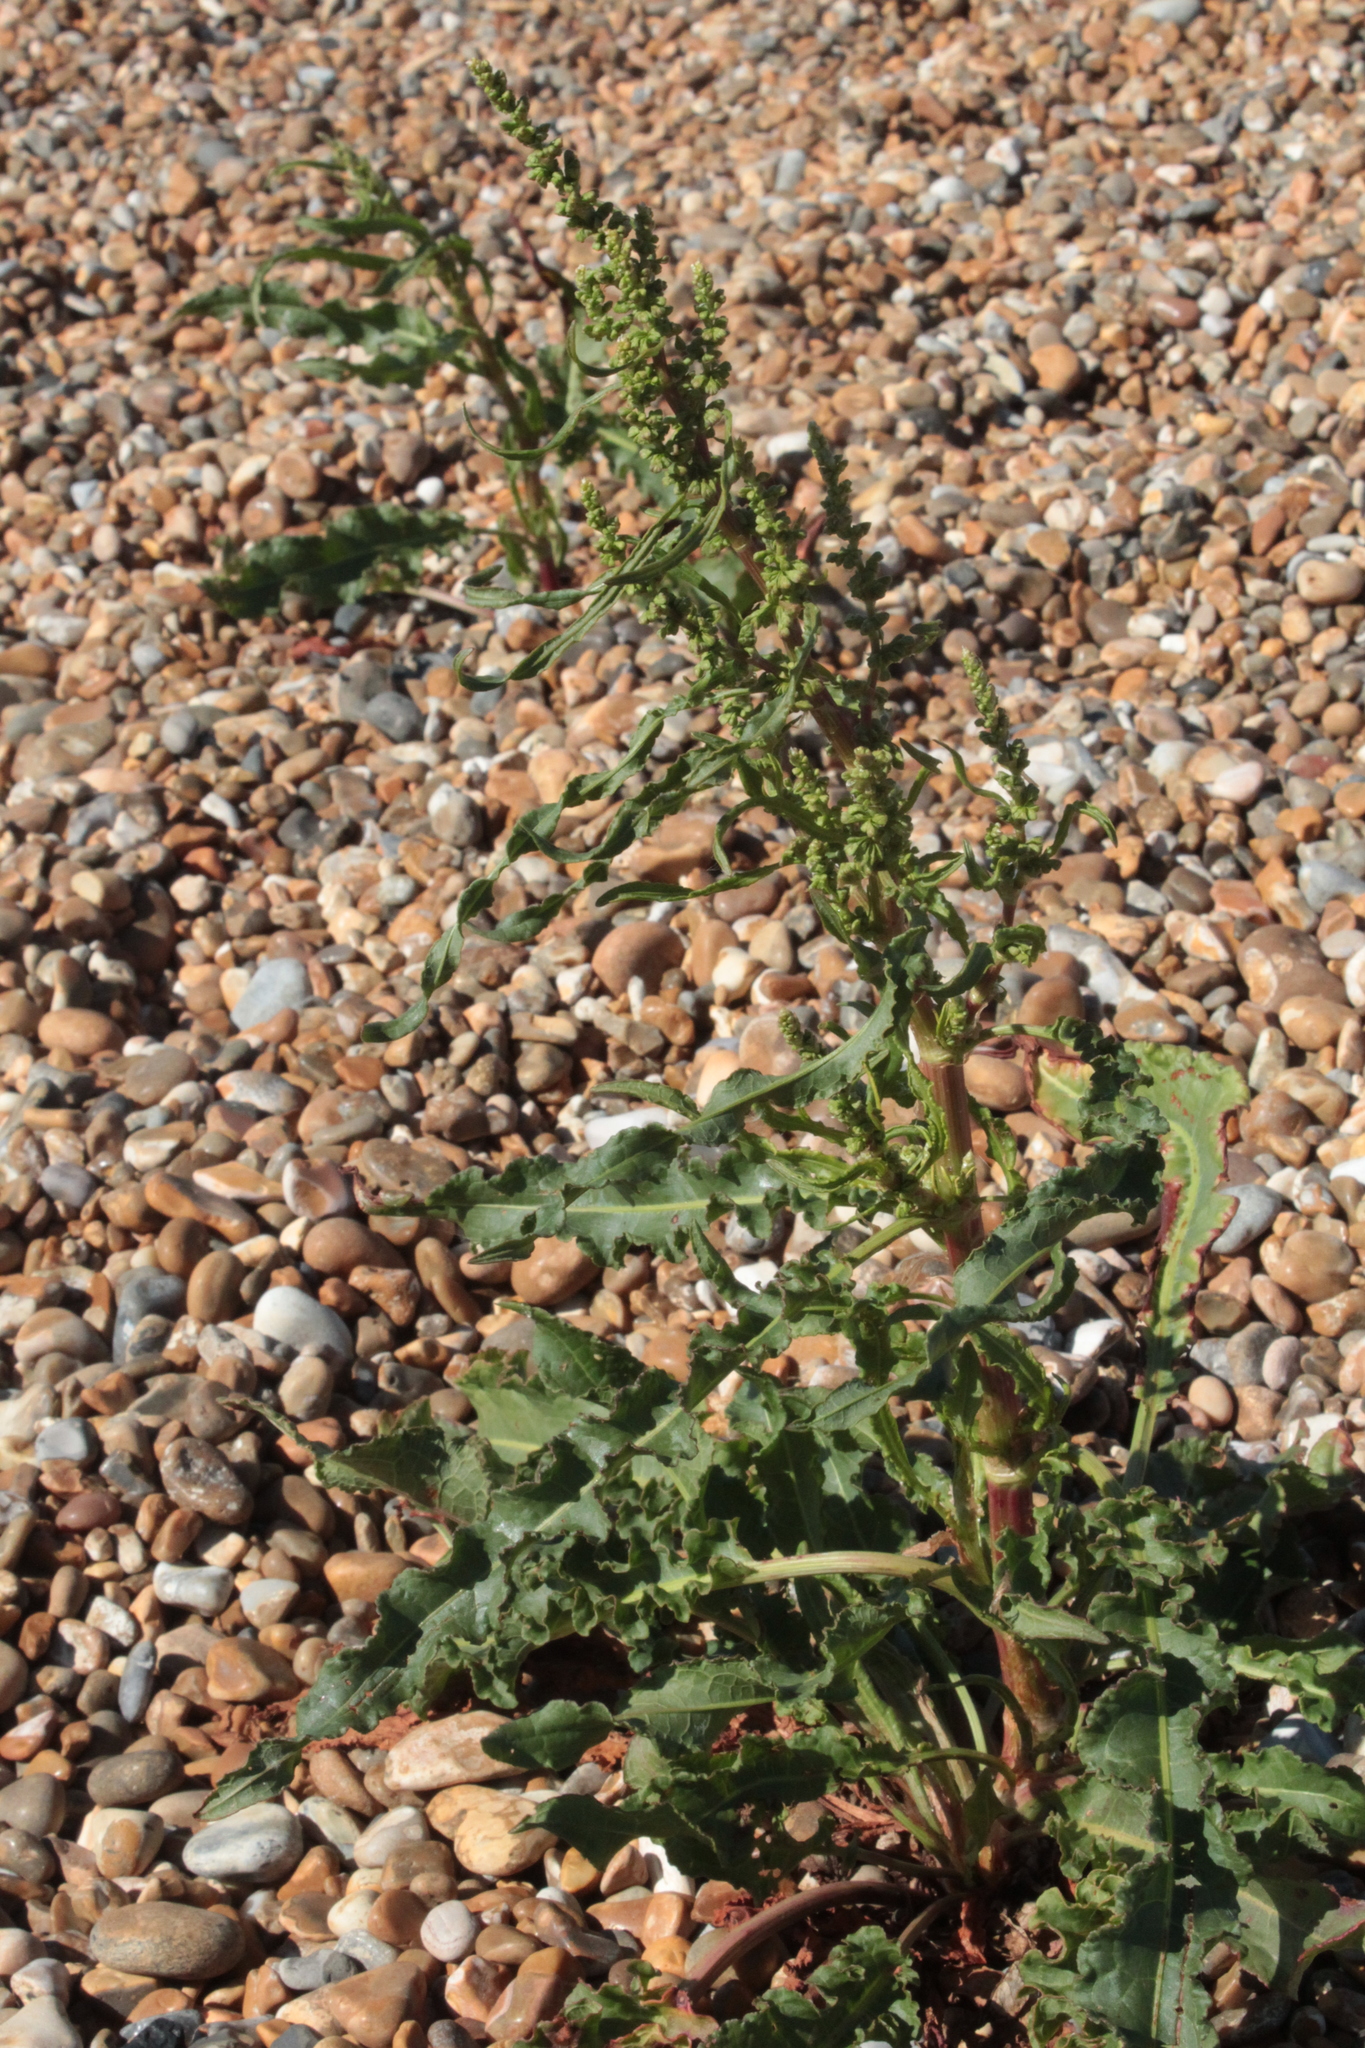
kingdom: Plantae
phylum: Tracheophyta
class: Magnoliopsida
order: Caryophyllales
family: Polygonaceae
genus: Rumex
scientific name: Rumex crispus
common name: Curled dock
